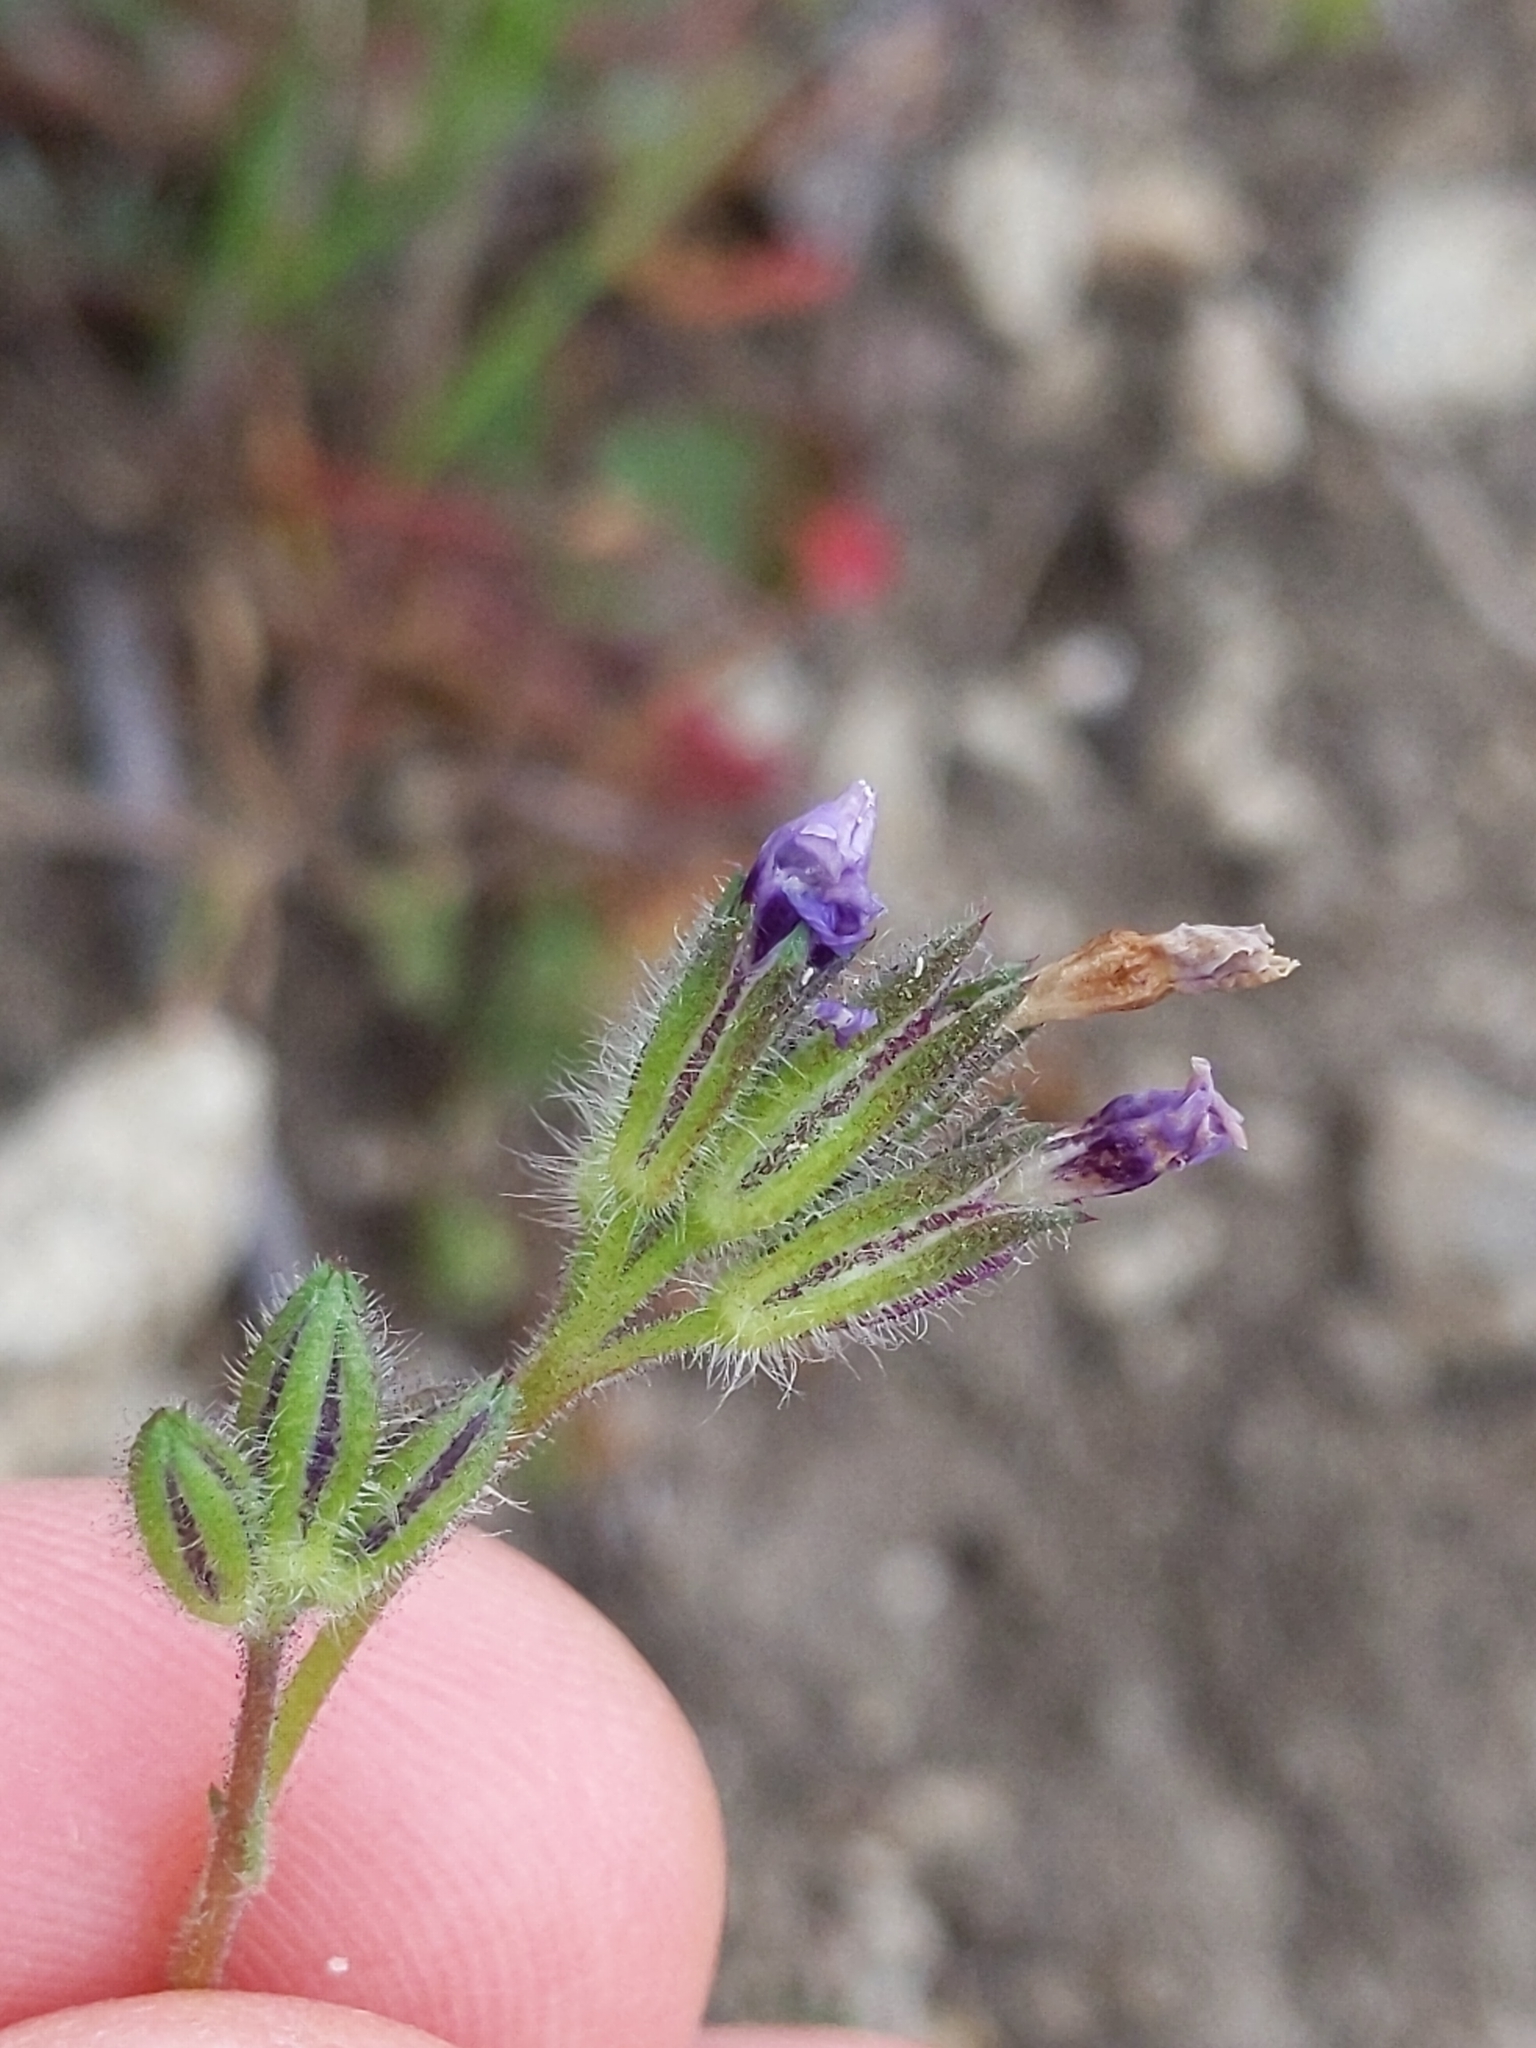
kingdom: Plantae
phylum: Tracheophyta
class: Magnoliopsida
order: Ericales
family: Polemoniaceae
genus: Gilia
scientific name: Gilia clivorum
